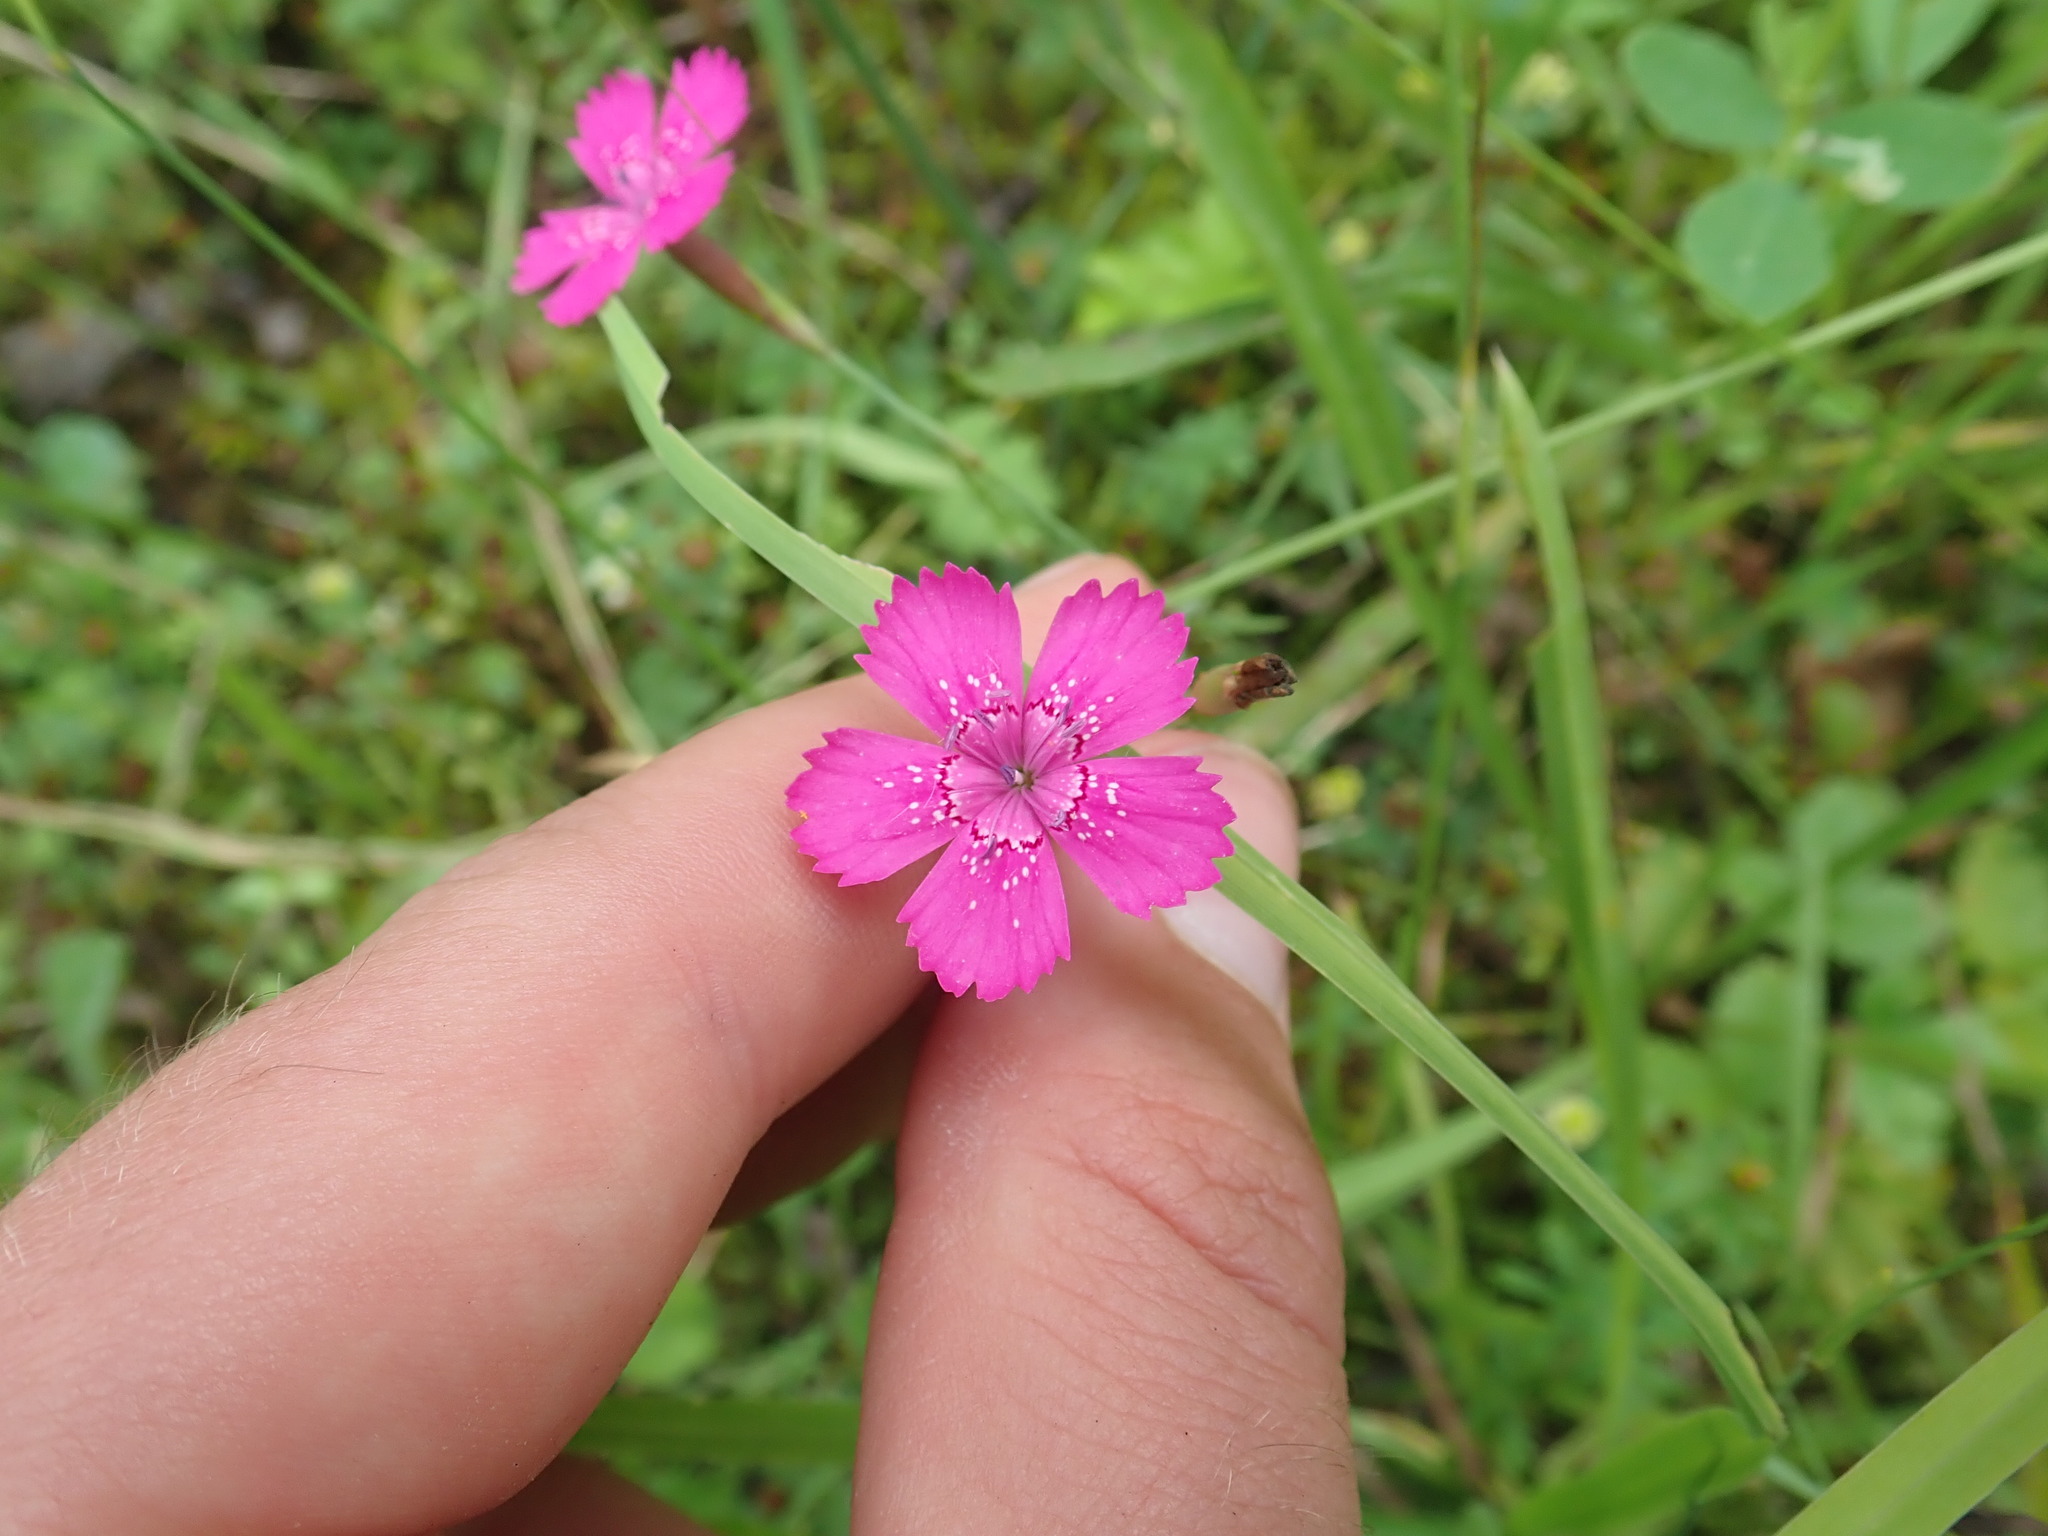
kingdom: Plantae
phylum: Tracheophyta
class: Magnoliopsida
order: Caryophyllales
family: Caryophyllaceae
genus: Dianthus
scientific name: Dianthus deltoides
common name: Maiden pink
